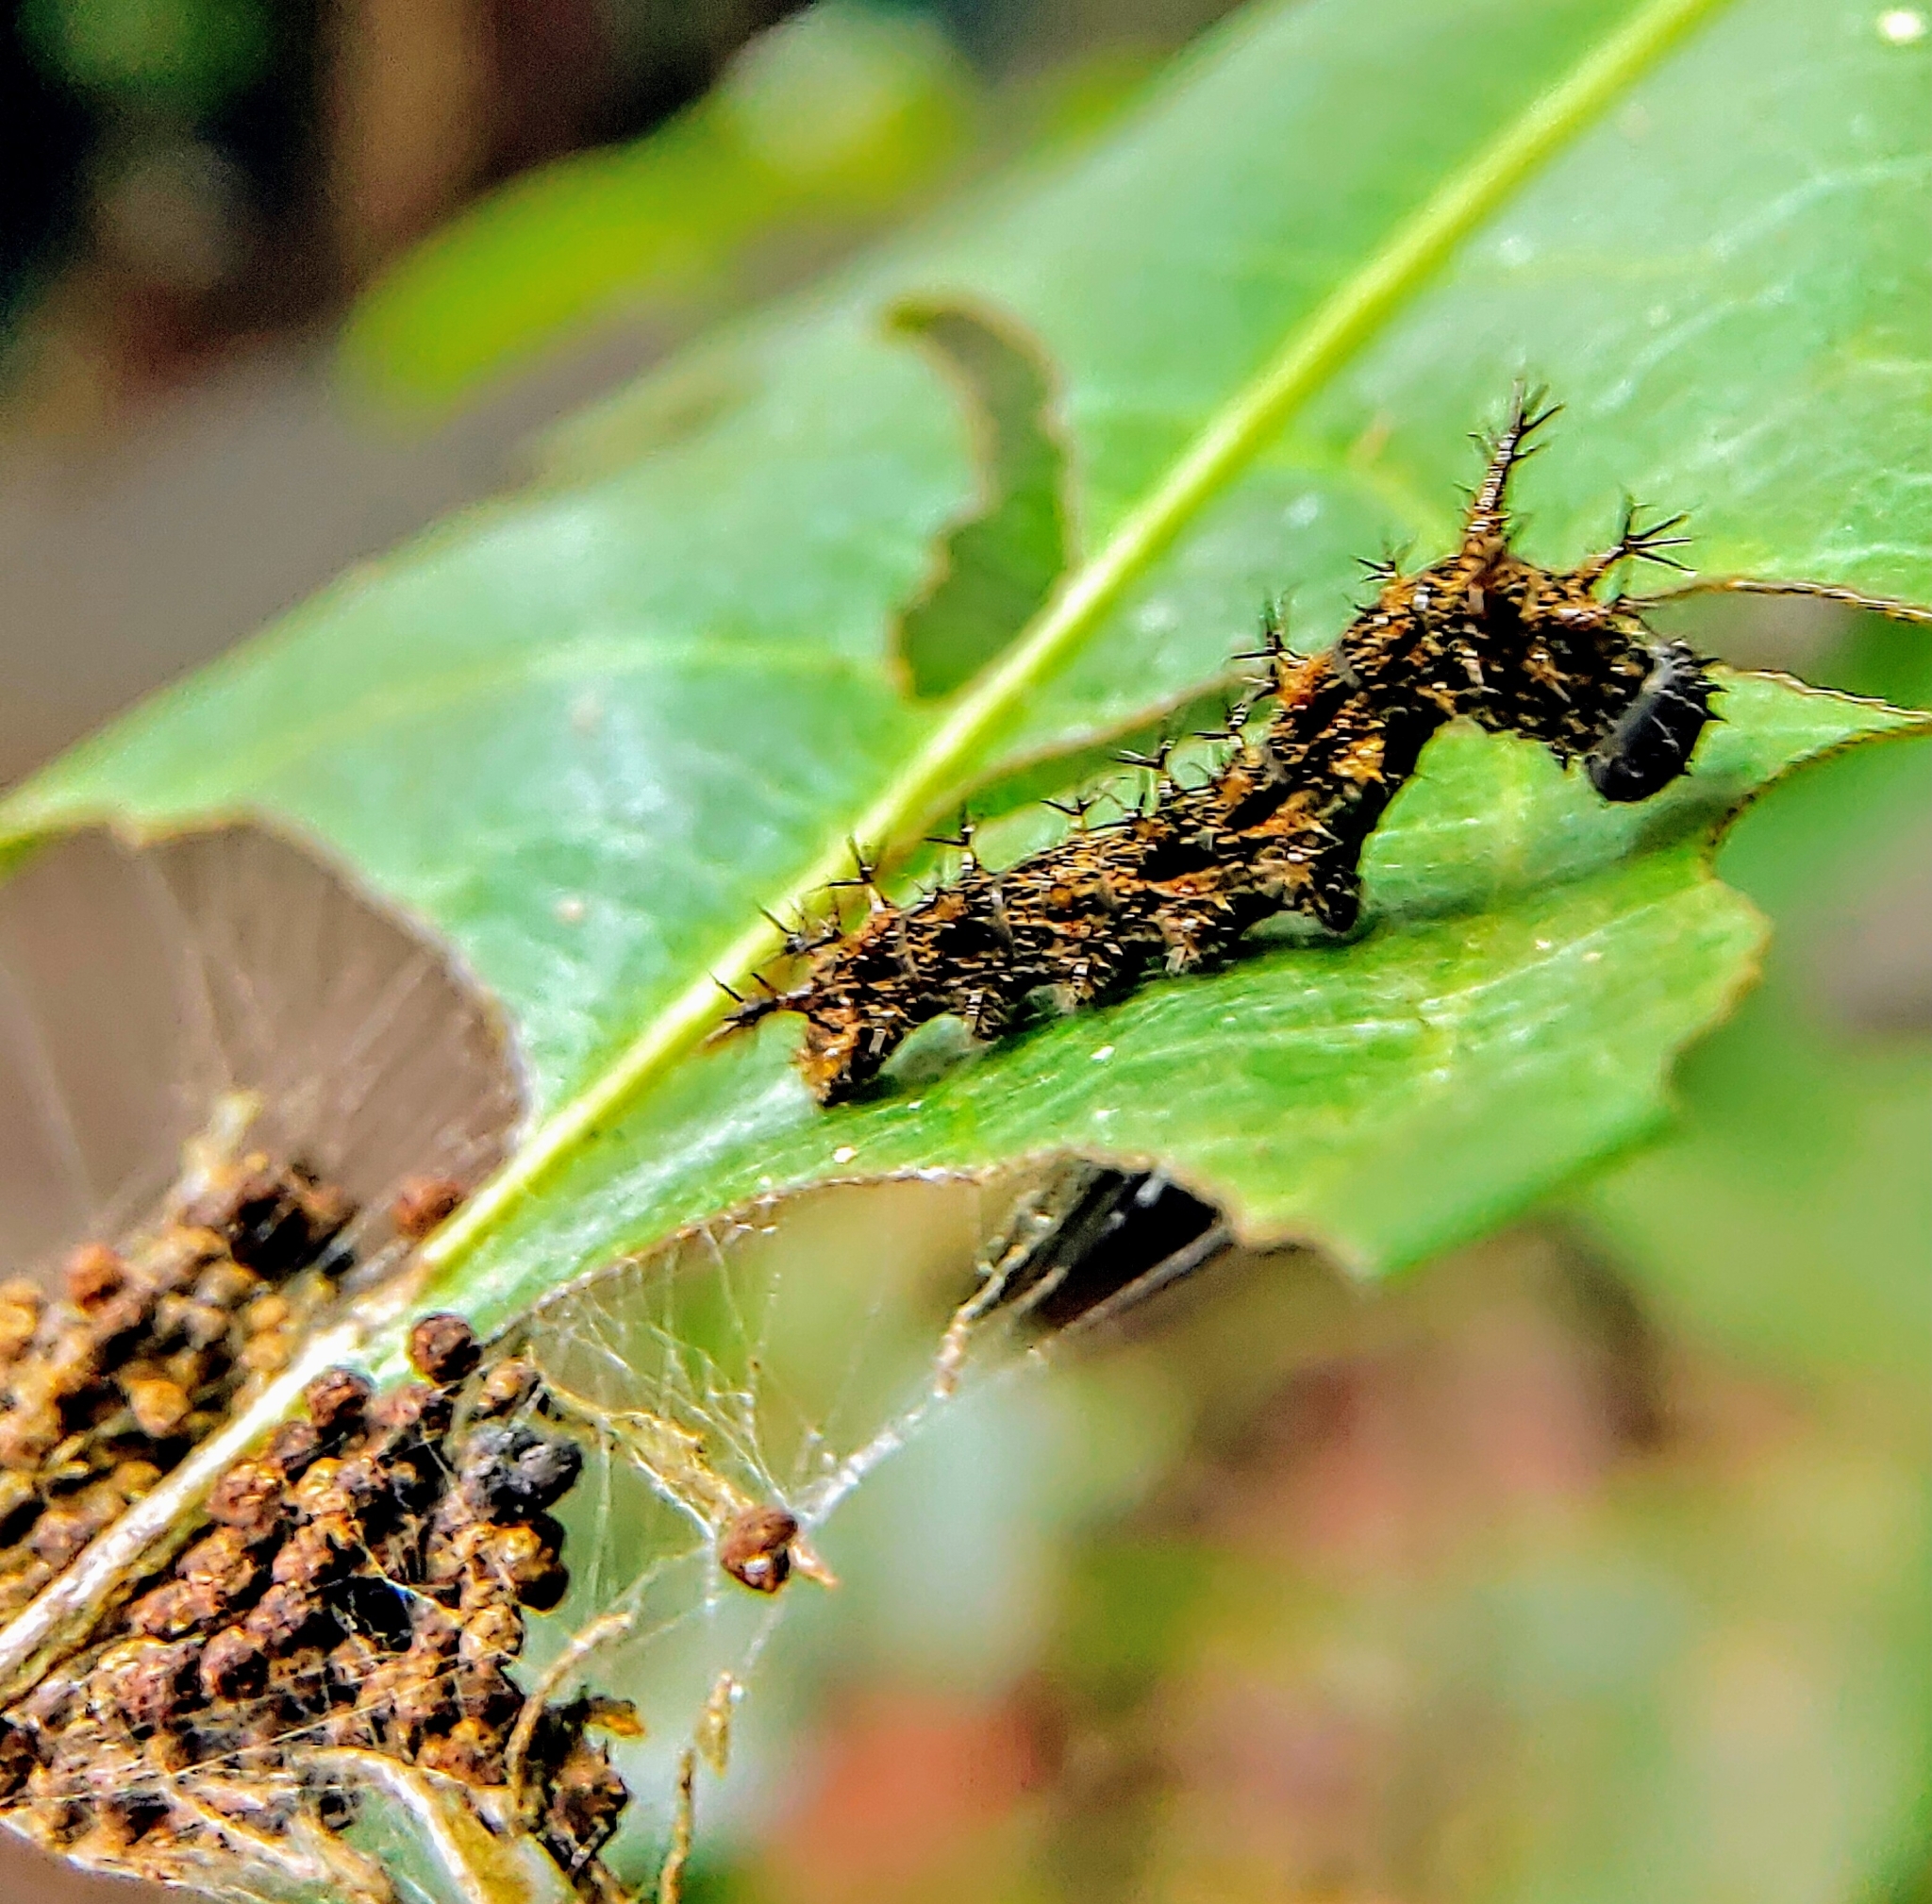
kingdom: Animalia
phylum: Arthropoda
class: Insecta
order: Lepidoptera
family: Nymphalidae
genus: Lebadea
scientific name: Lebadea martha
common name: Knight
